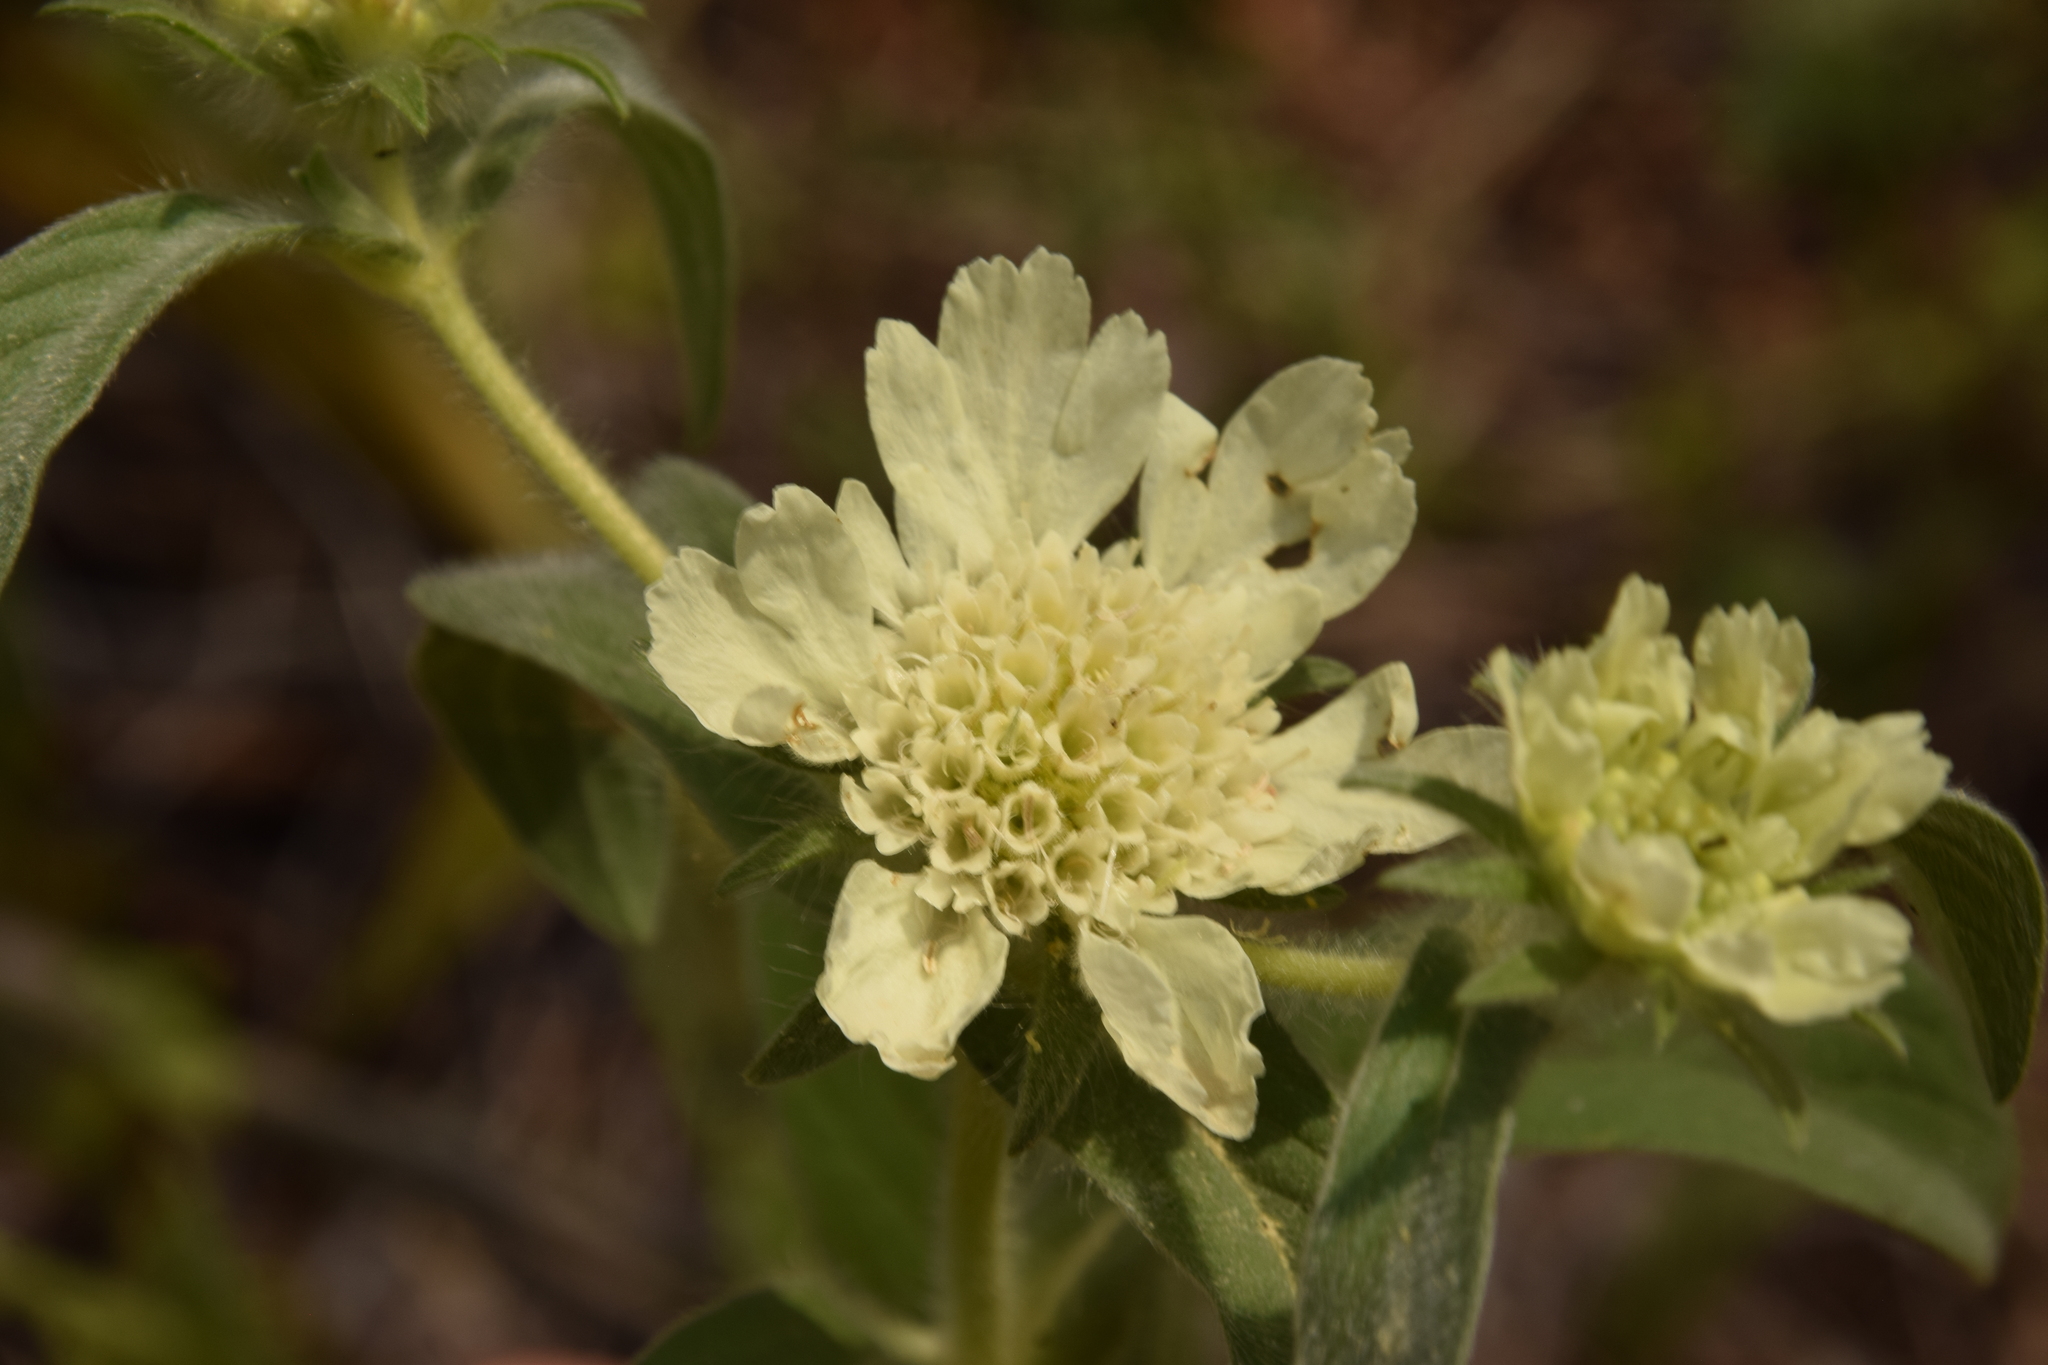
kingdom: Plantae
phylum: Tracheophyta
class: Magnoliopsida
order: Dipsacales
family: Caprifoliaceae
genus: Lomelosia
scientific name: Lomelosia prolifera
